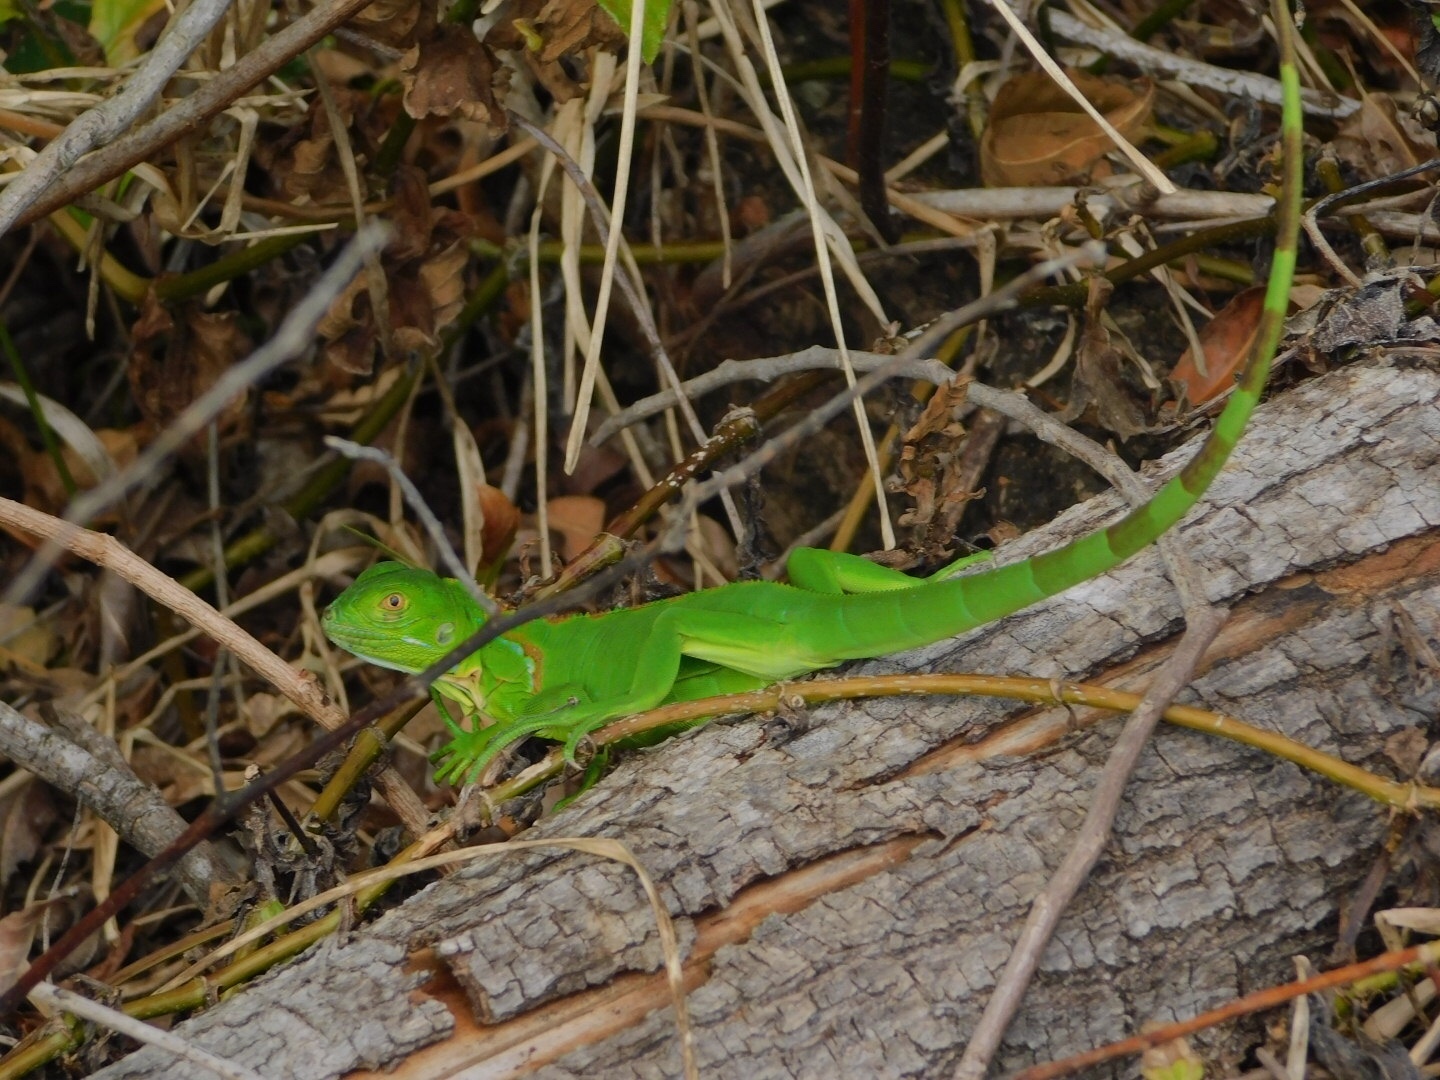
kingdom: Animalia
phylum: Chordata
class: Squamata
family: Iguanidae
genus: Iguana
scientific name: Iguana iguana
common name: Green iguana
